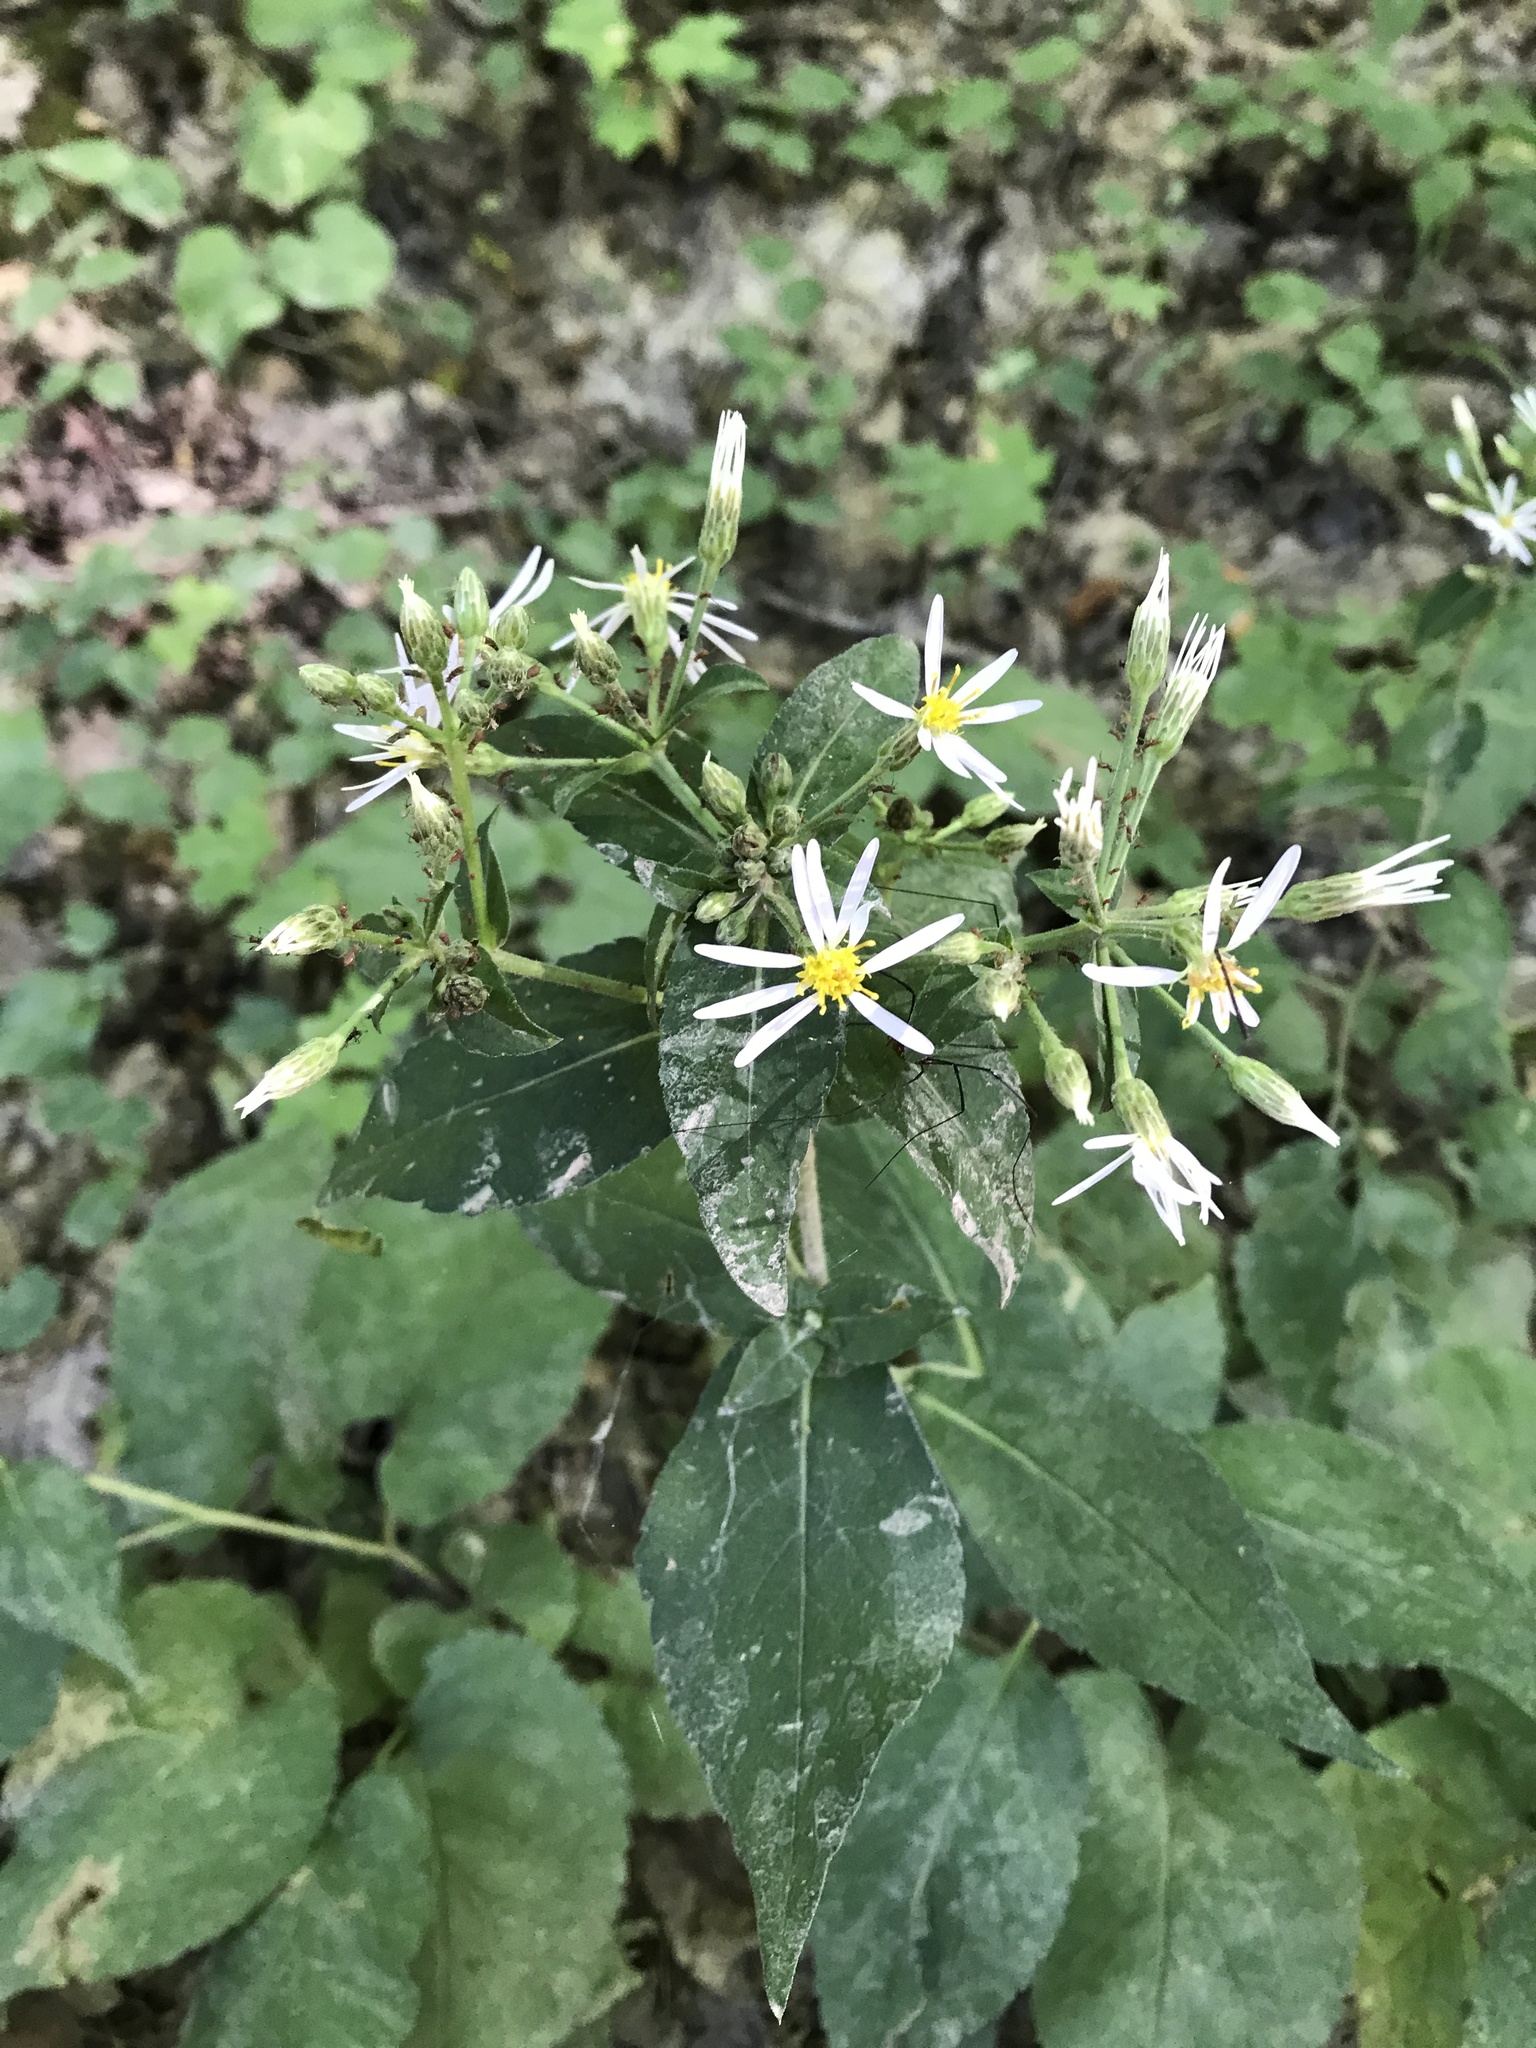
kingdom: Plantae
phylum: Tracheophyta
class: Magnoliopsida
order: Asterales
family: Asteraceae
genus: Eurybia
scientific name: Eurybia macrophylla
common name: Big-leaved aster
